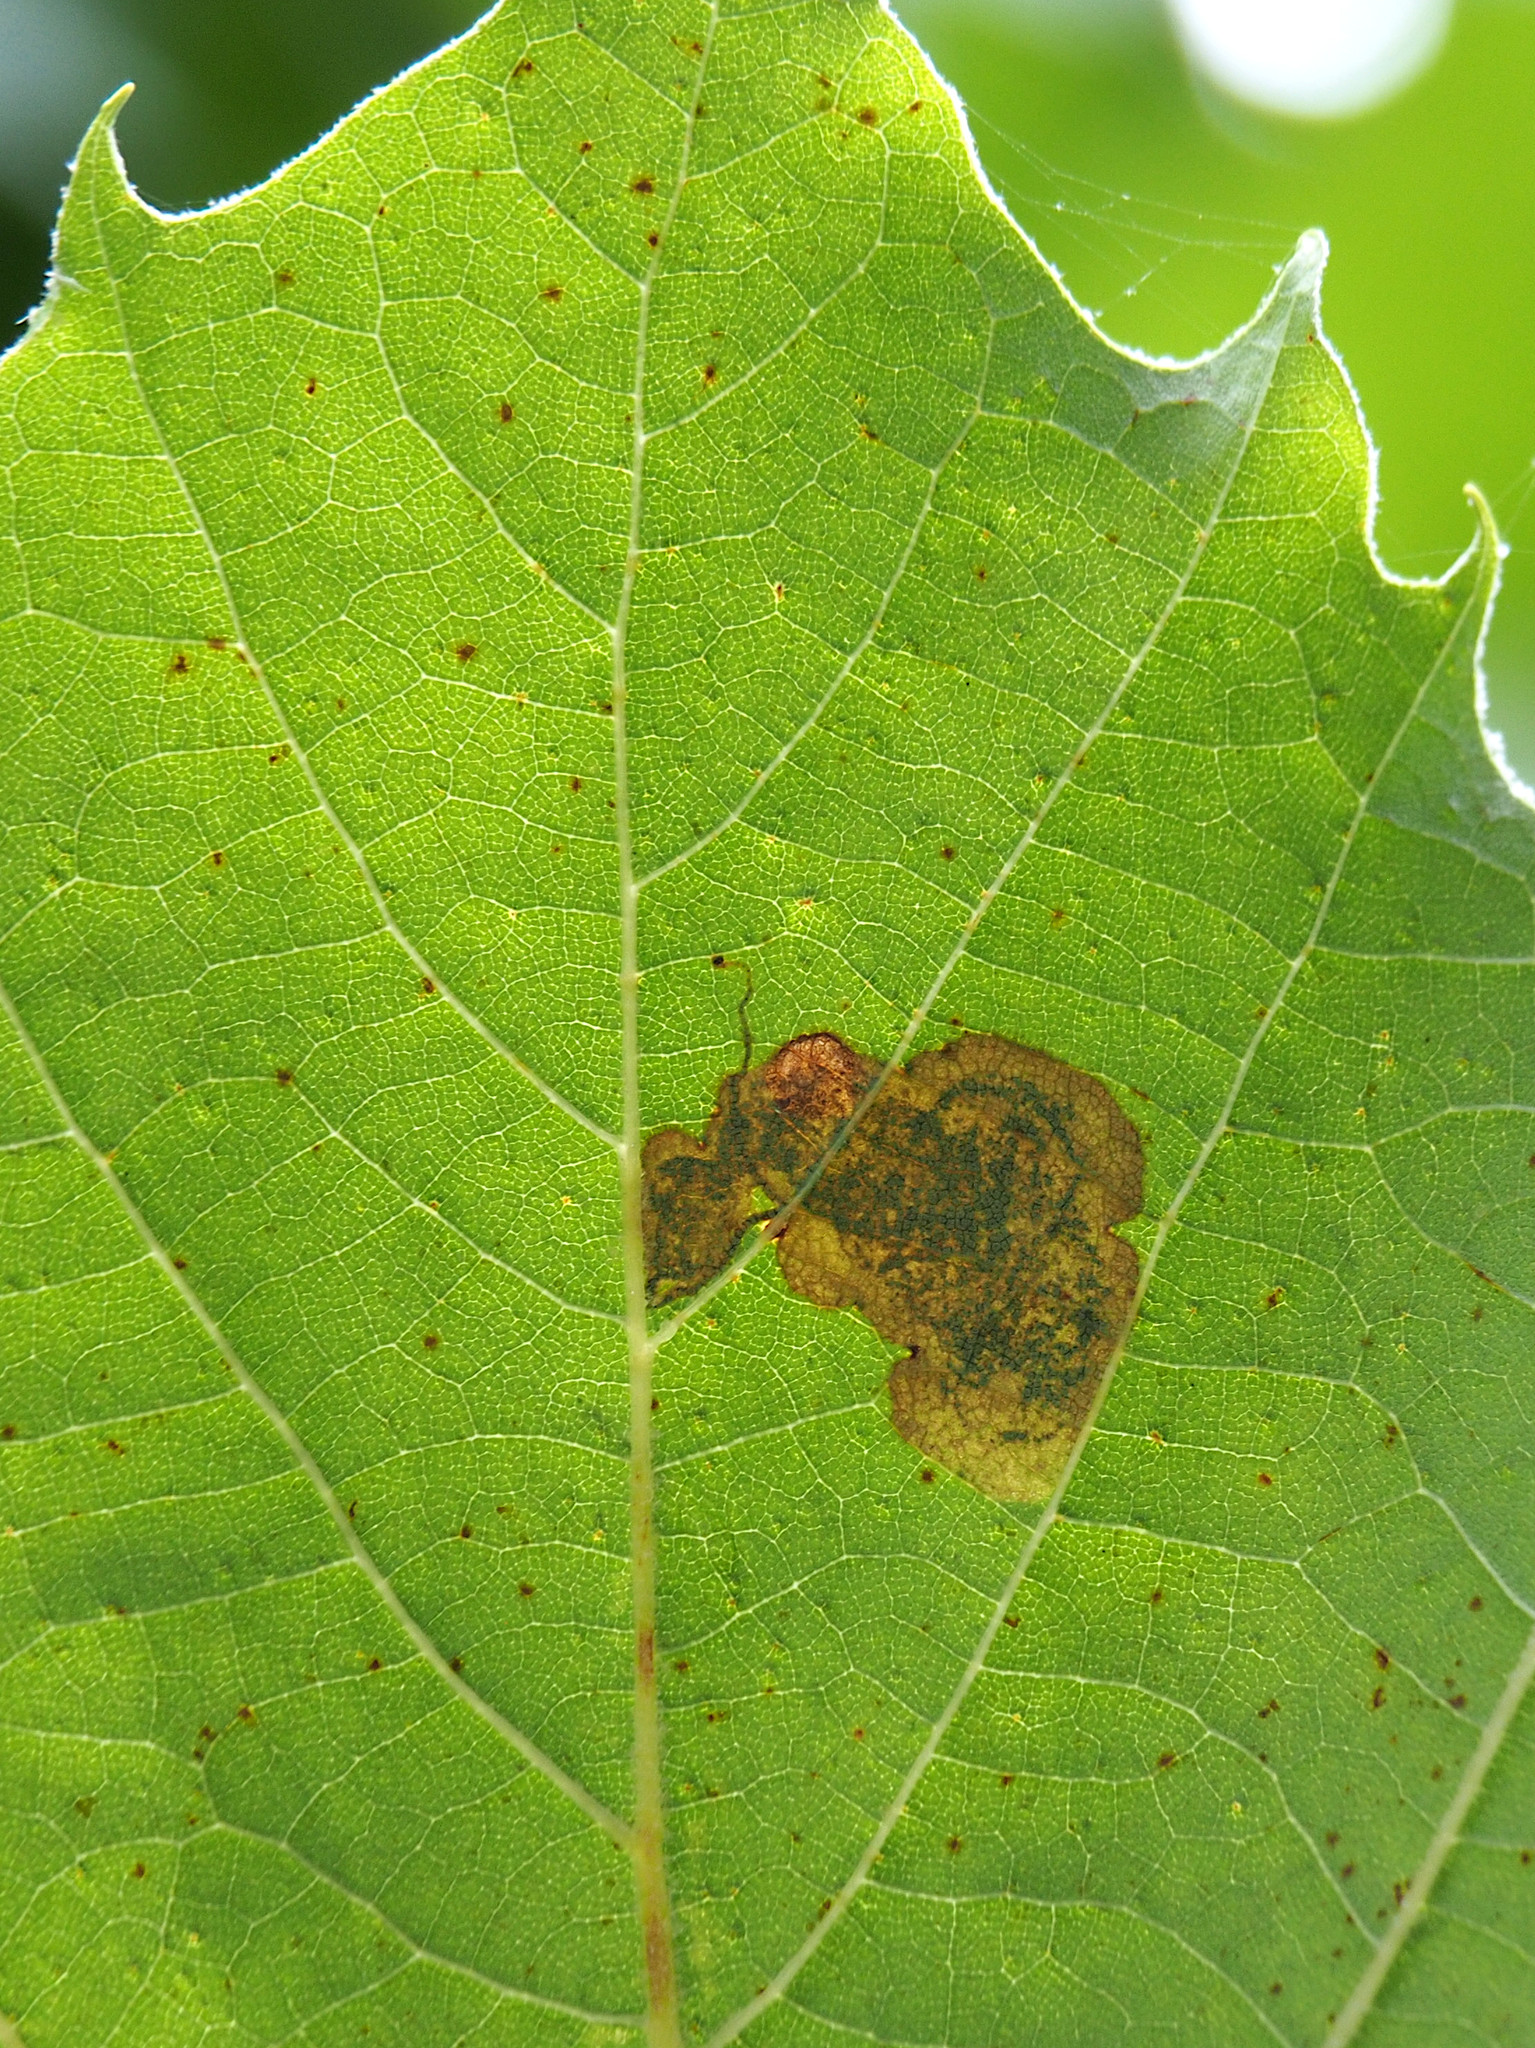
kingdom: Animalia
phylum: Arthropoda
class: Insecta
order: Lepidoptera
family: Nepticulidae
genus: Ectoedemia
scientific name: Ectoedemia platanella
